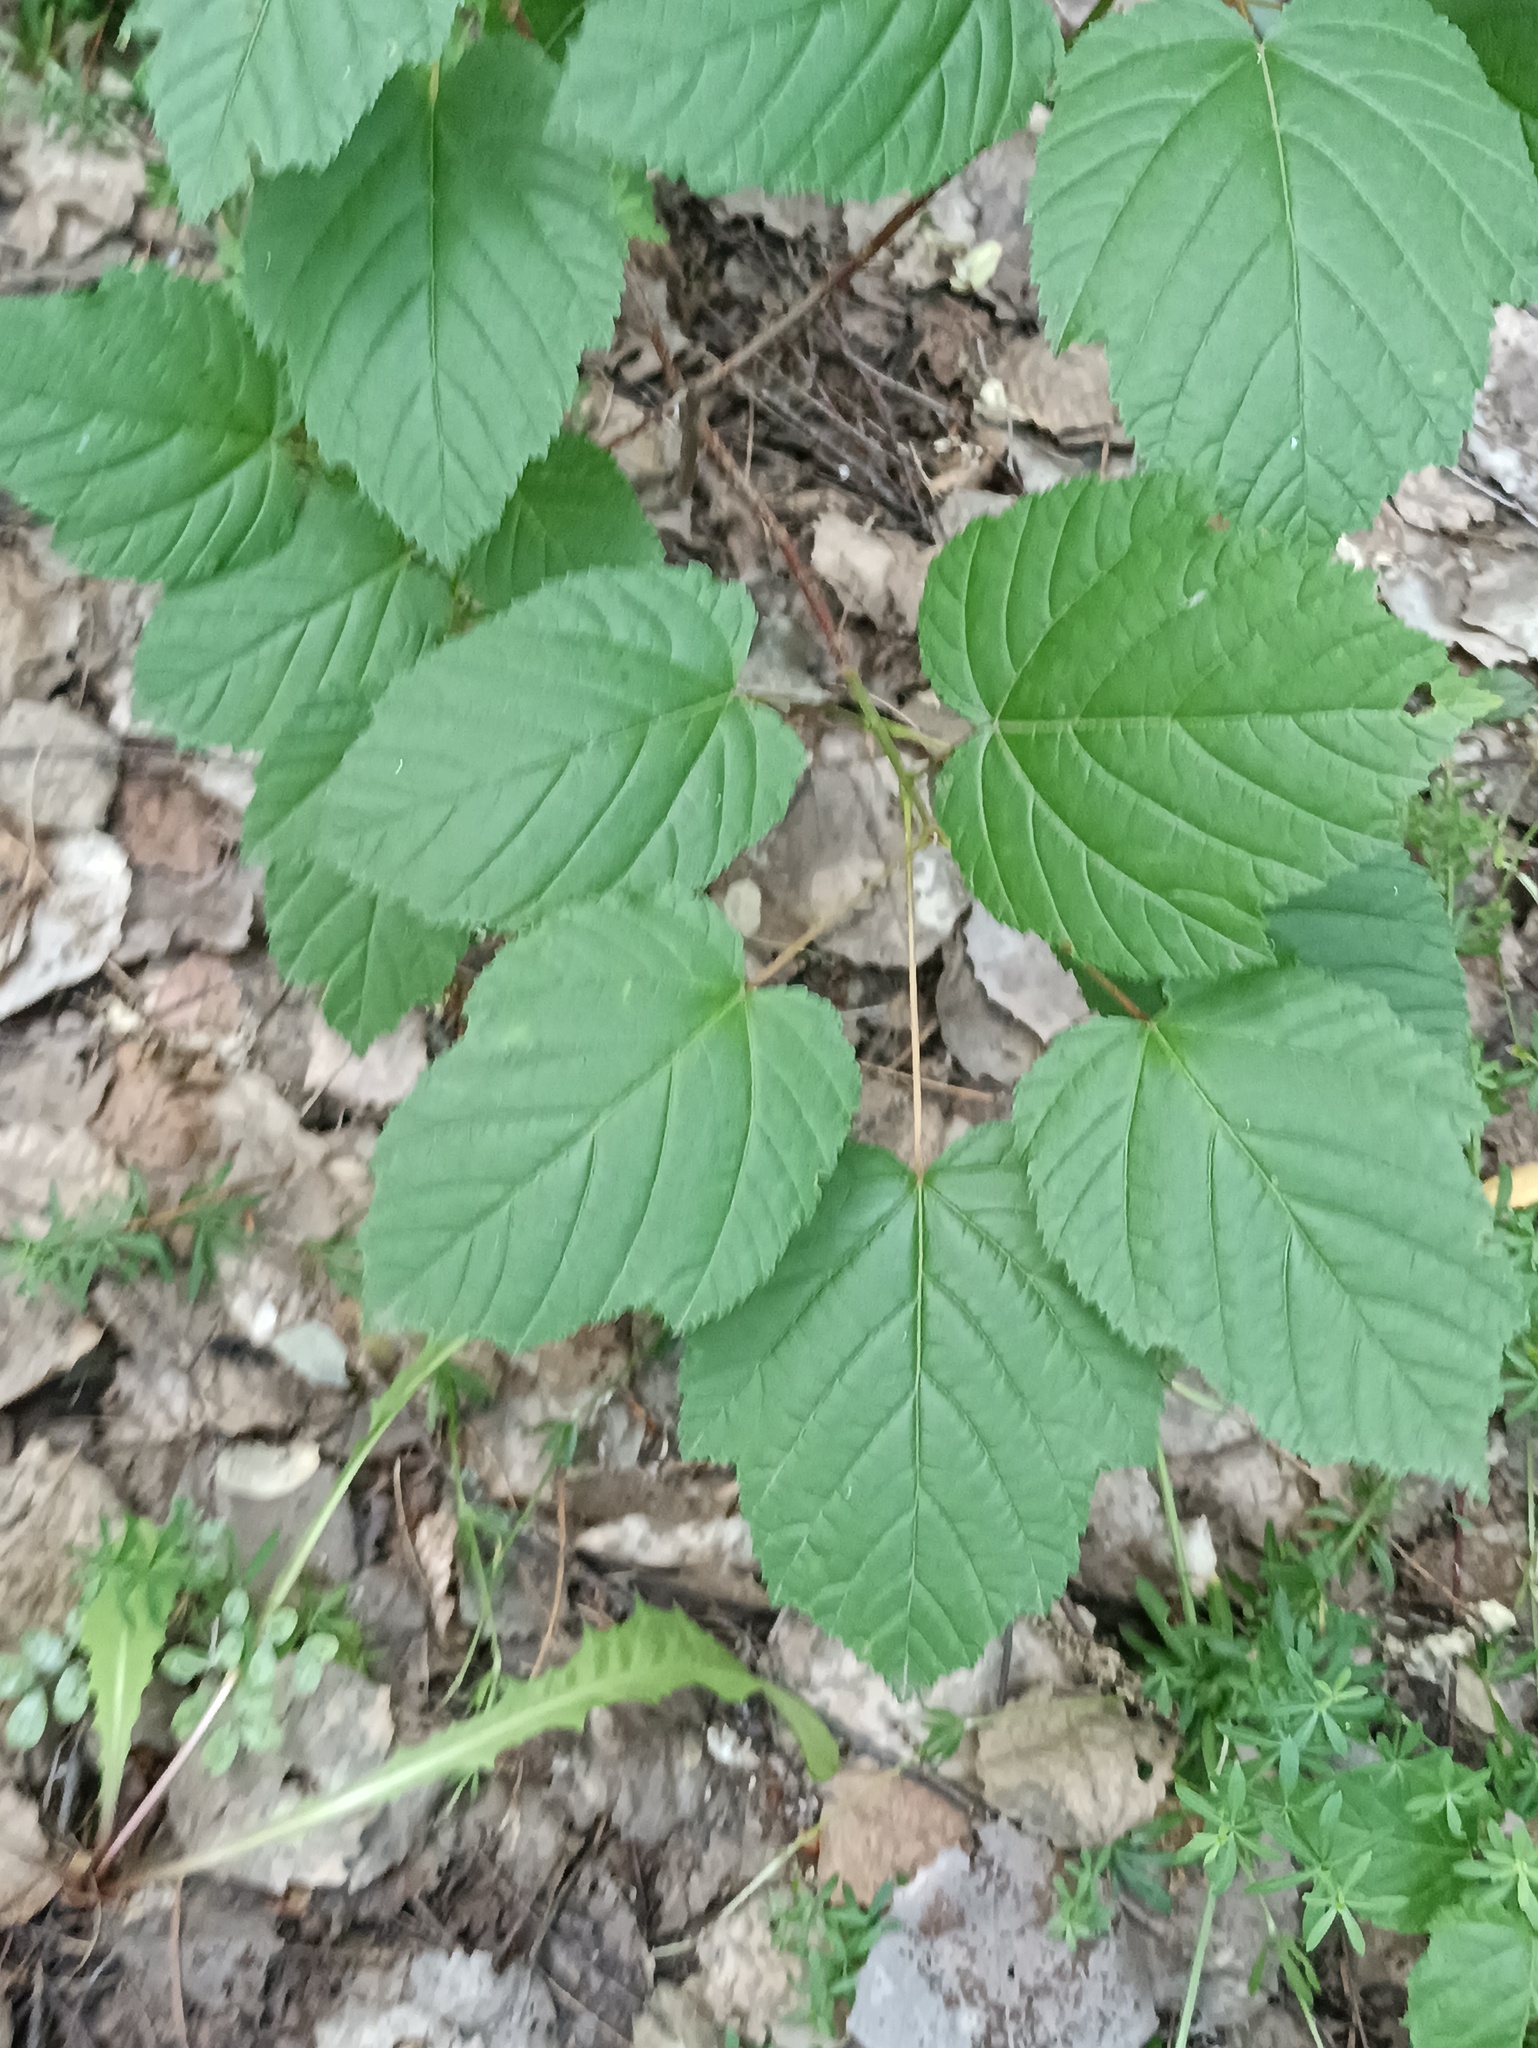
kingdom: Plantae
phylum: Tracheophyta
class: Magnoliopsida
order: Sapindales
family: Sapindaceae
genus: Acer
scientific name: Acer tataricum
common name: Tartar maple
